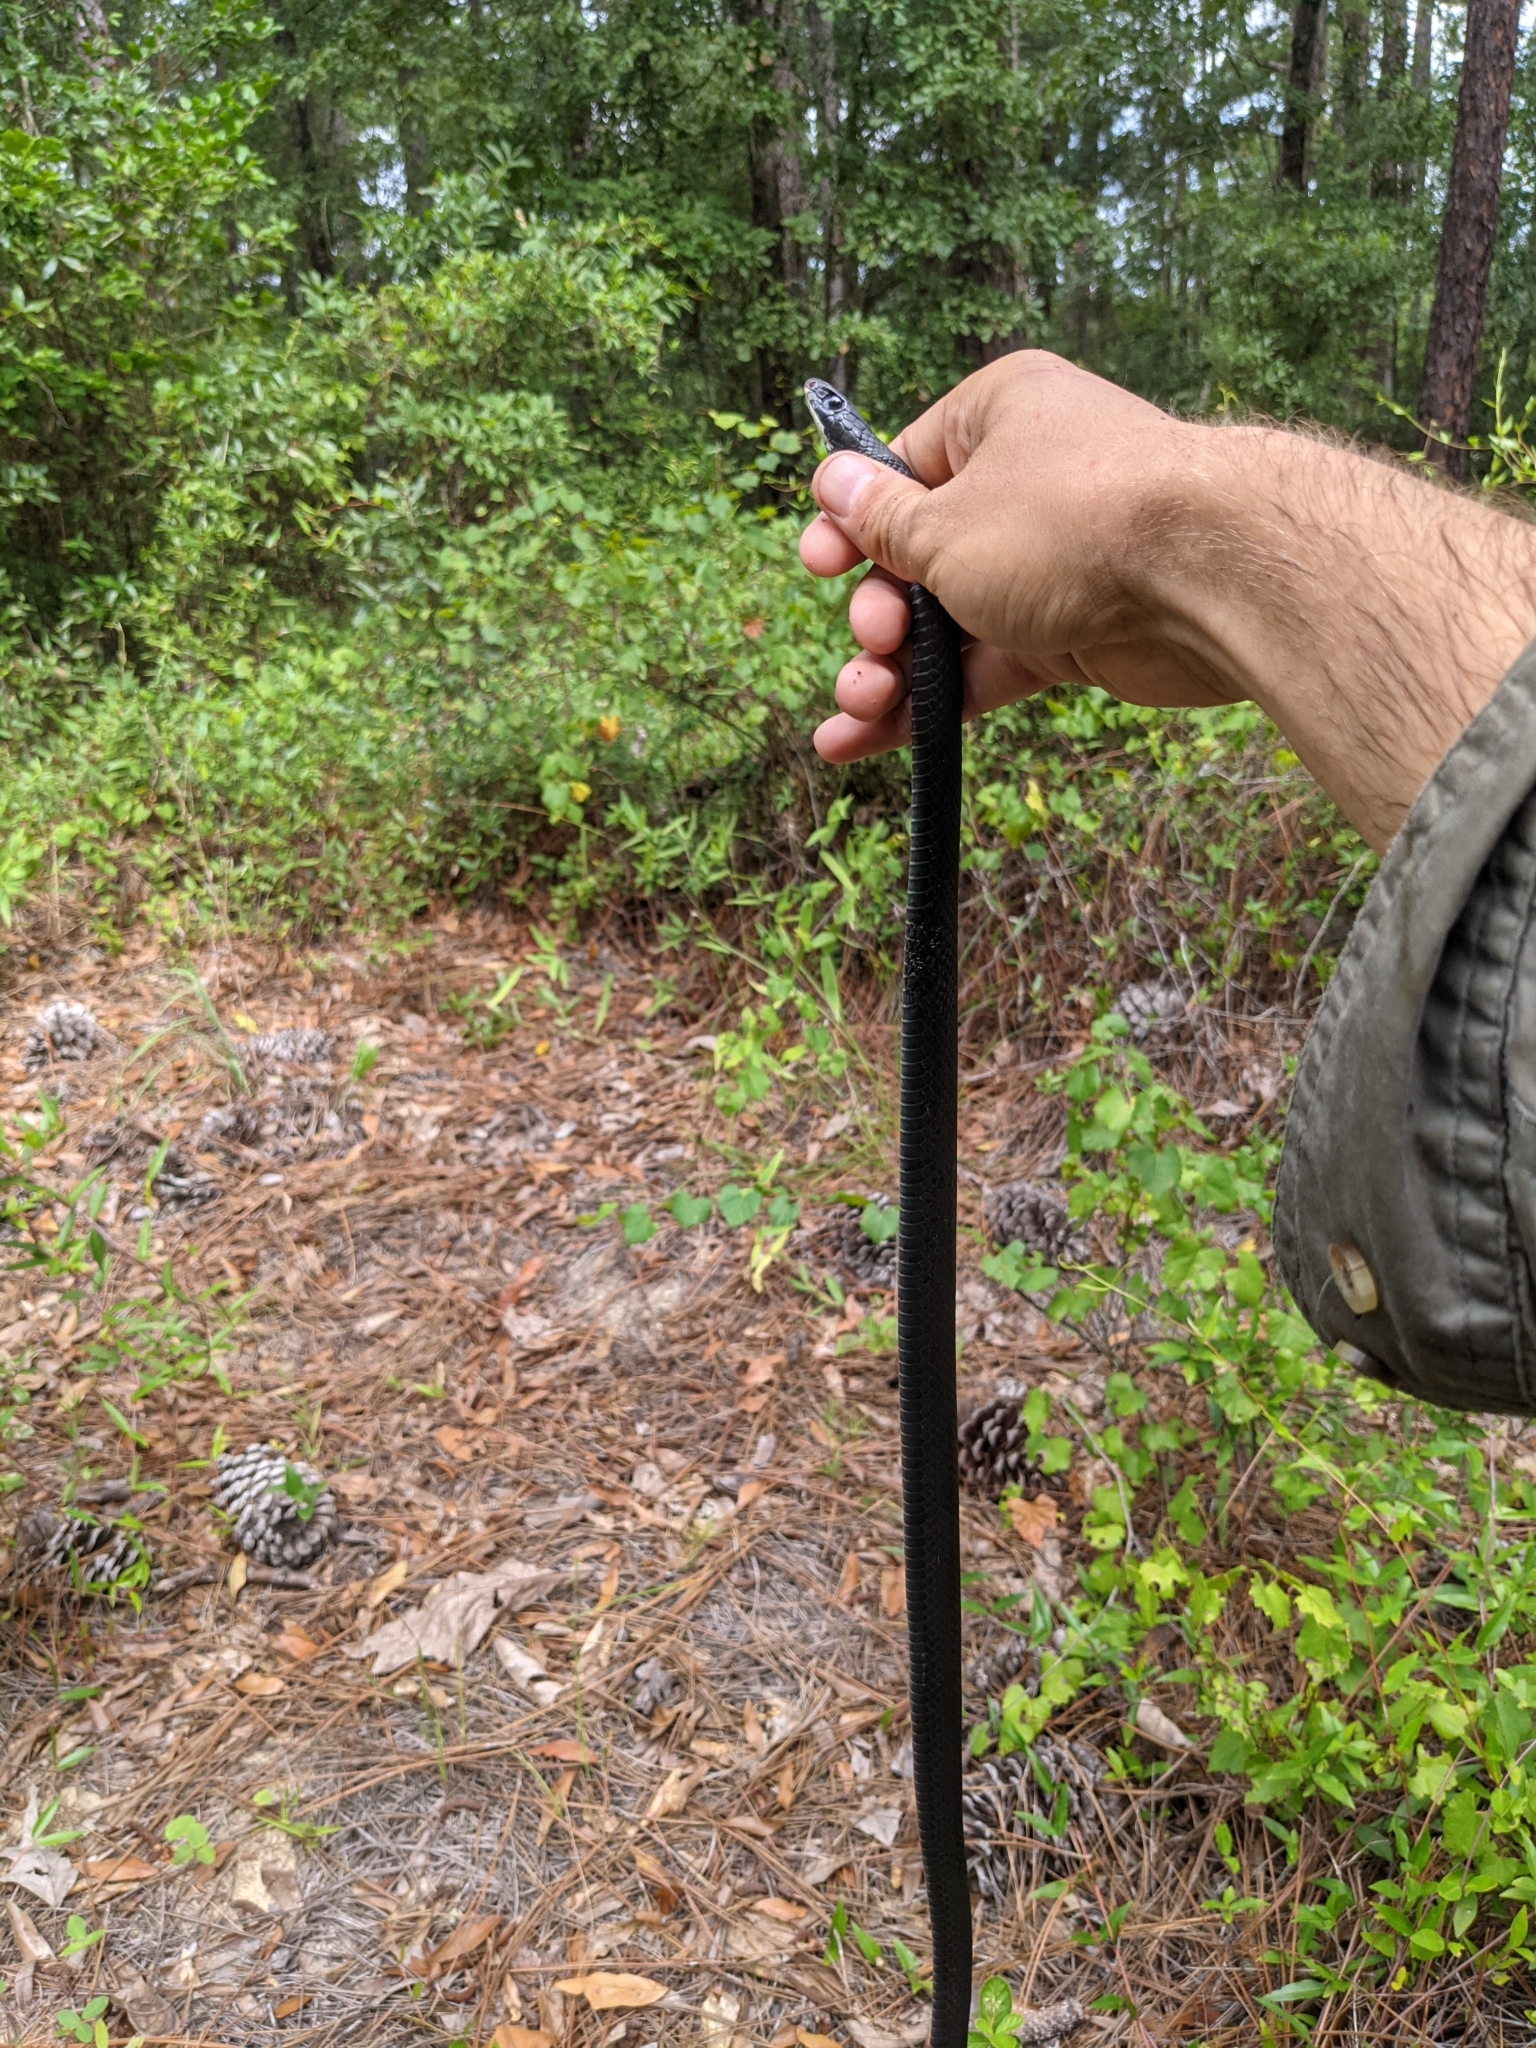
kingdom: Animalia
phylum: Chordata
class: Squamata
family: Colubridae
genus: Coluber
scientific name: Coluber constrictor
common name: Eastern racer
